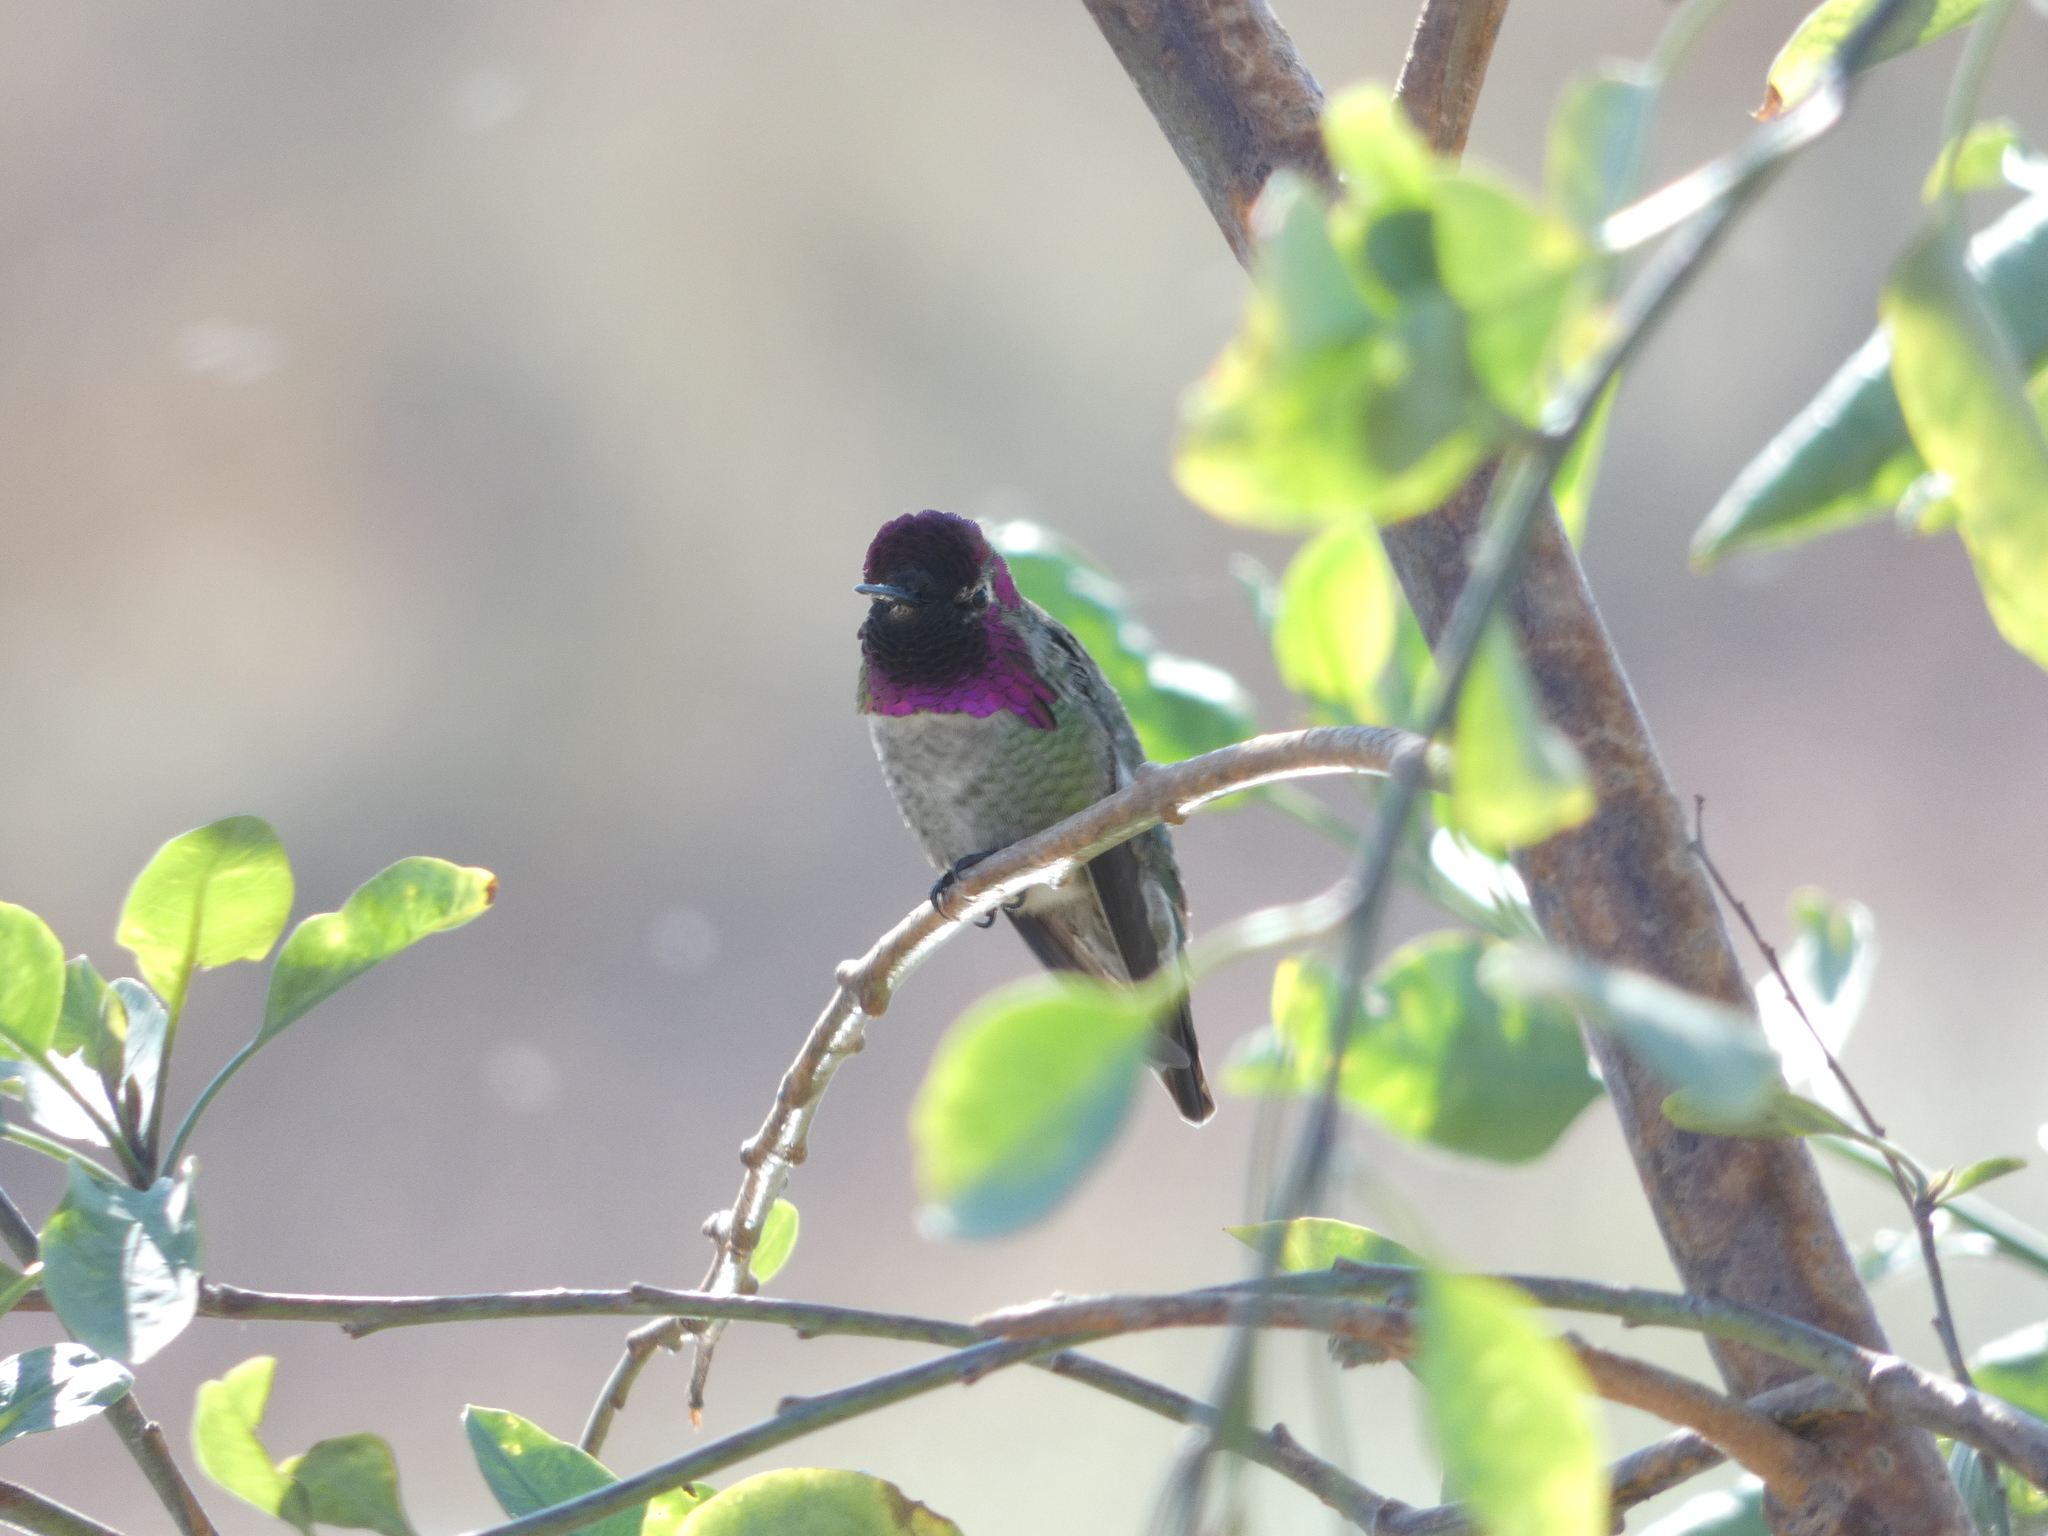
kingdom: Animalia
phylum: Chordata
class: Aves
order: Apodiformes
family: Trochilidae
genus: Calypte
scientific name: Calypte anna
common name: Anna's hummingbird
